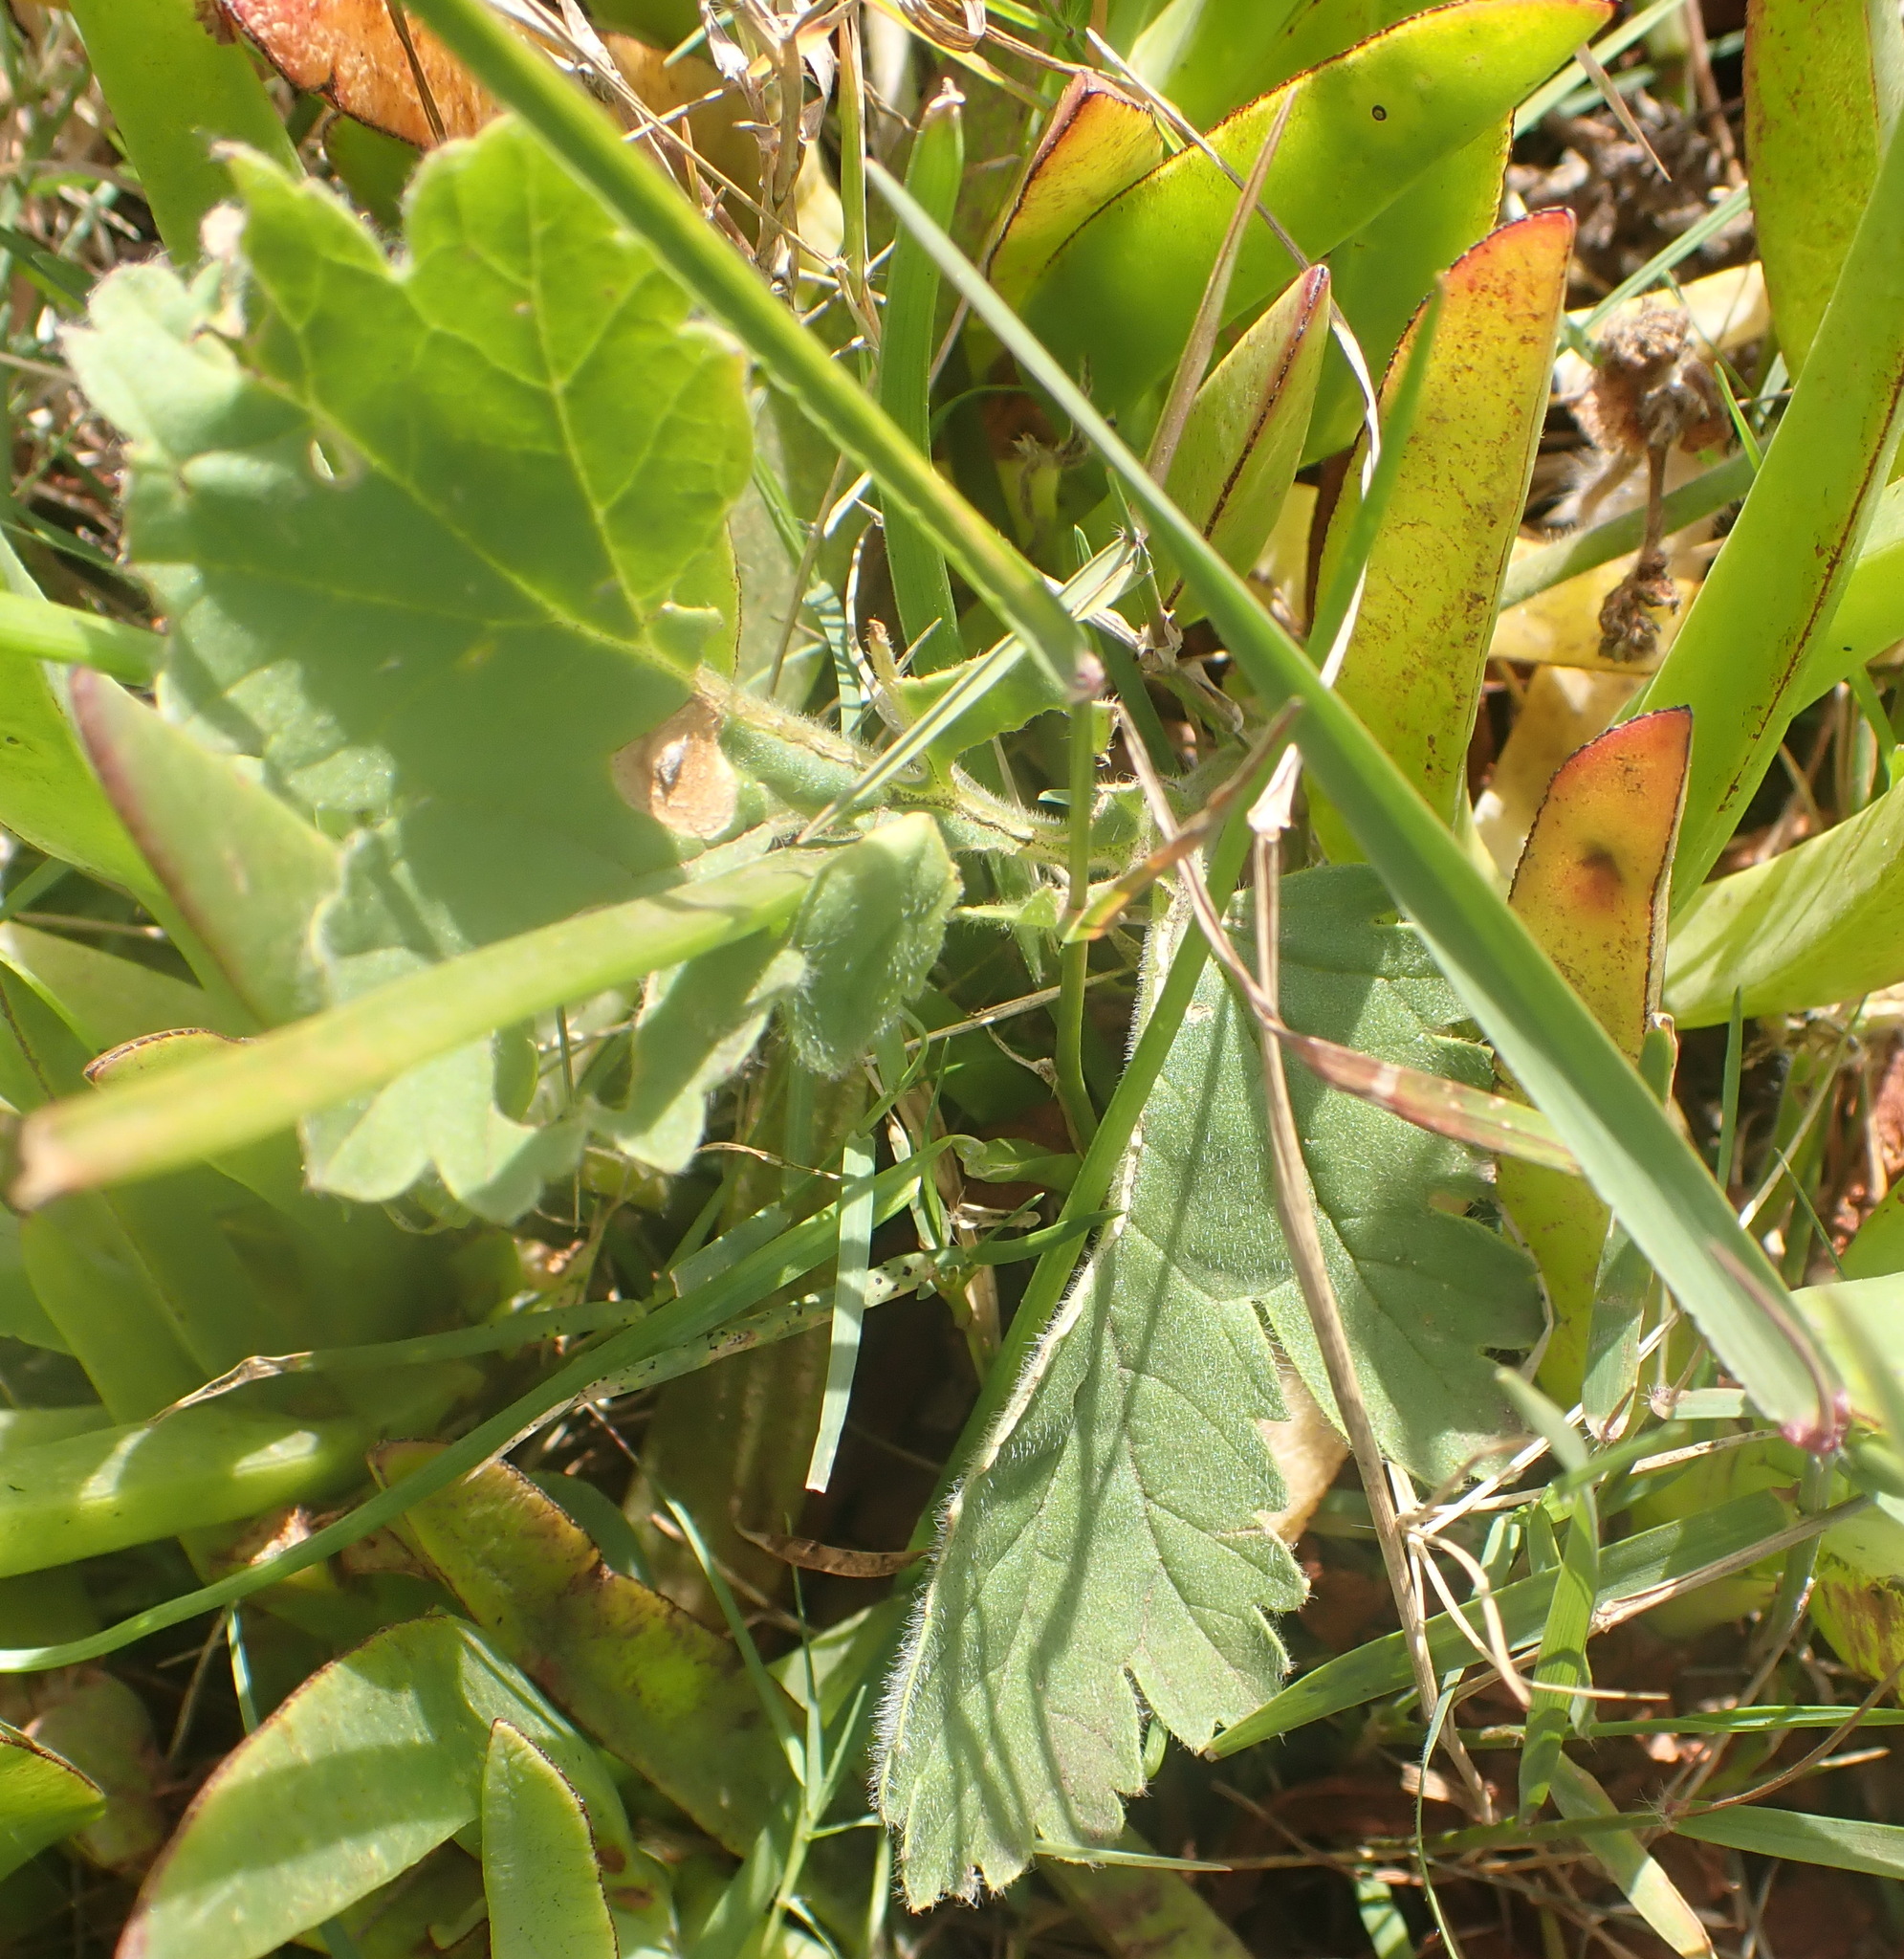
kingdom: Plantae
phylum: Tracheophyta
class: Magnoliopsida
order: Geraniales
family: Geraniaceae
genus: Pelargonium
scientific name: Pelargonium lobatum
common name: Vine-leaf pelargonium
